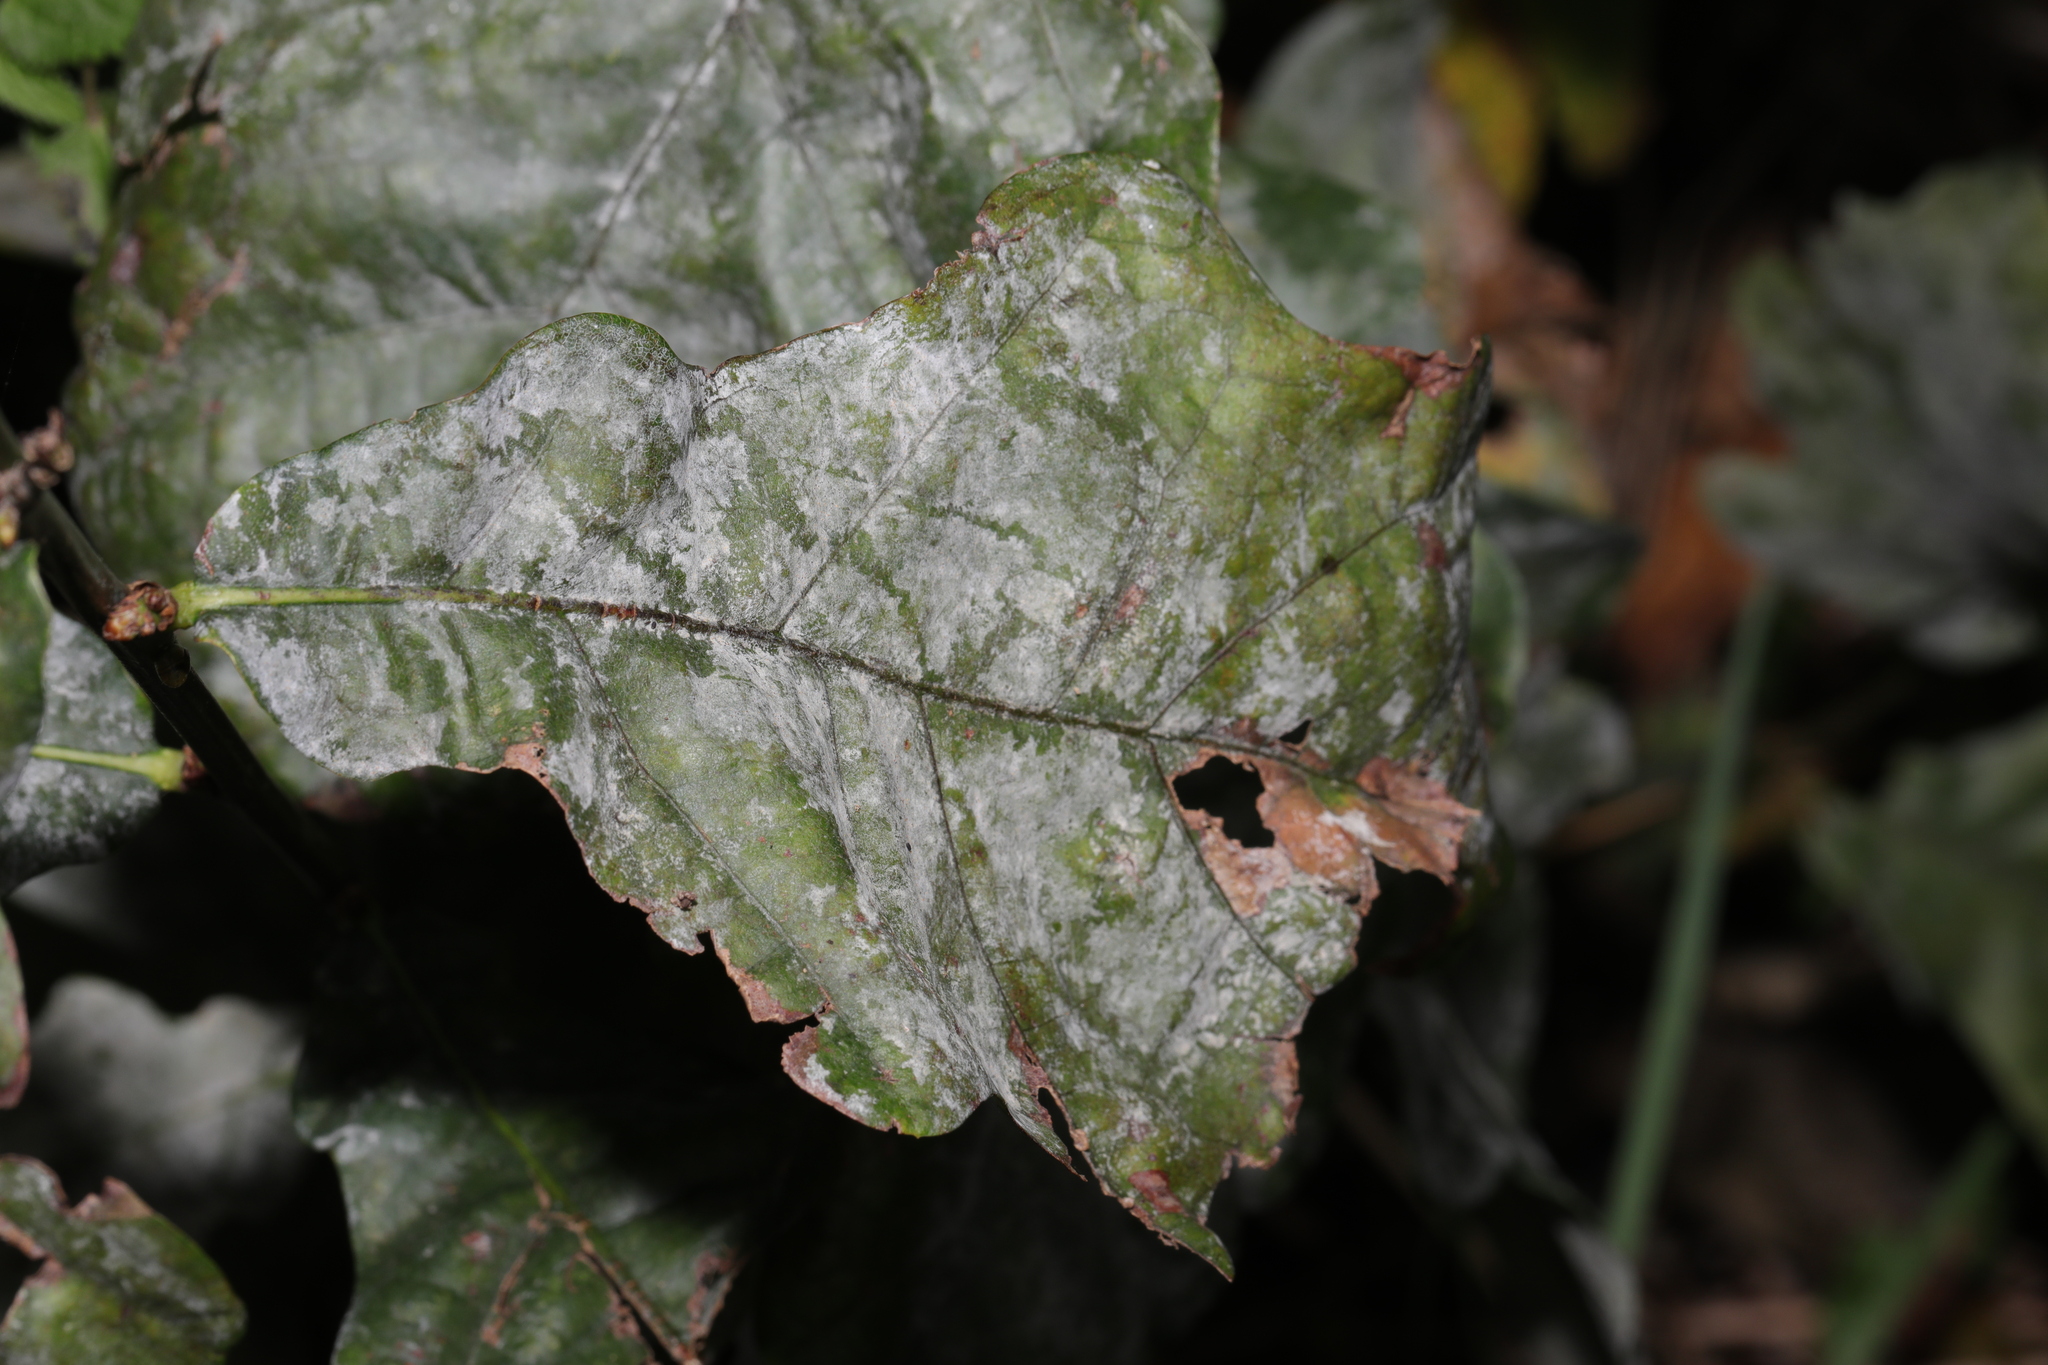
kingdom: Fungi
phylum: Ascomycota
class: Leotiomycetes
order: Helotiales
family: Erysiphaceae
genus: Erysiphe
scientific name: Erysiphe alphitoides
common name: Oak mildew
